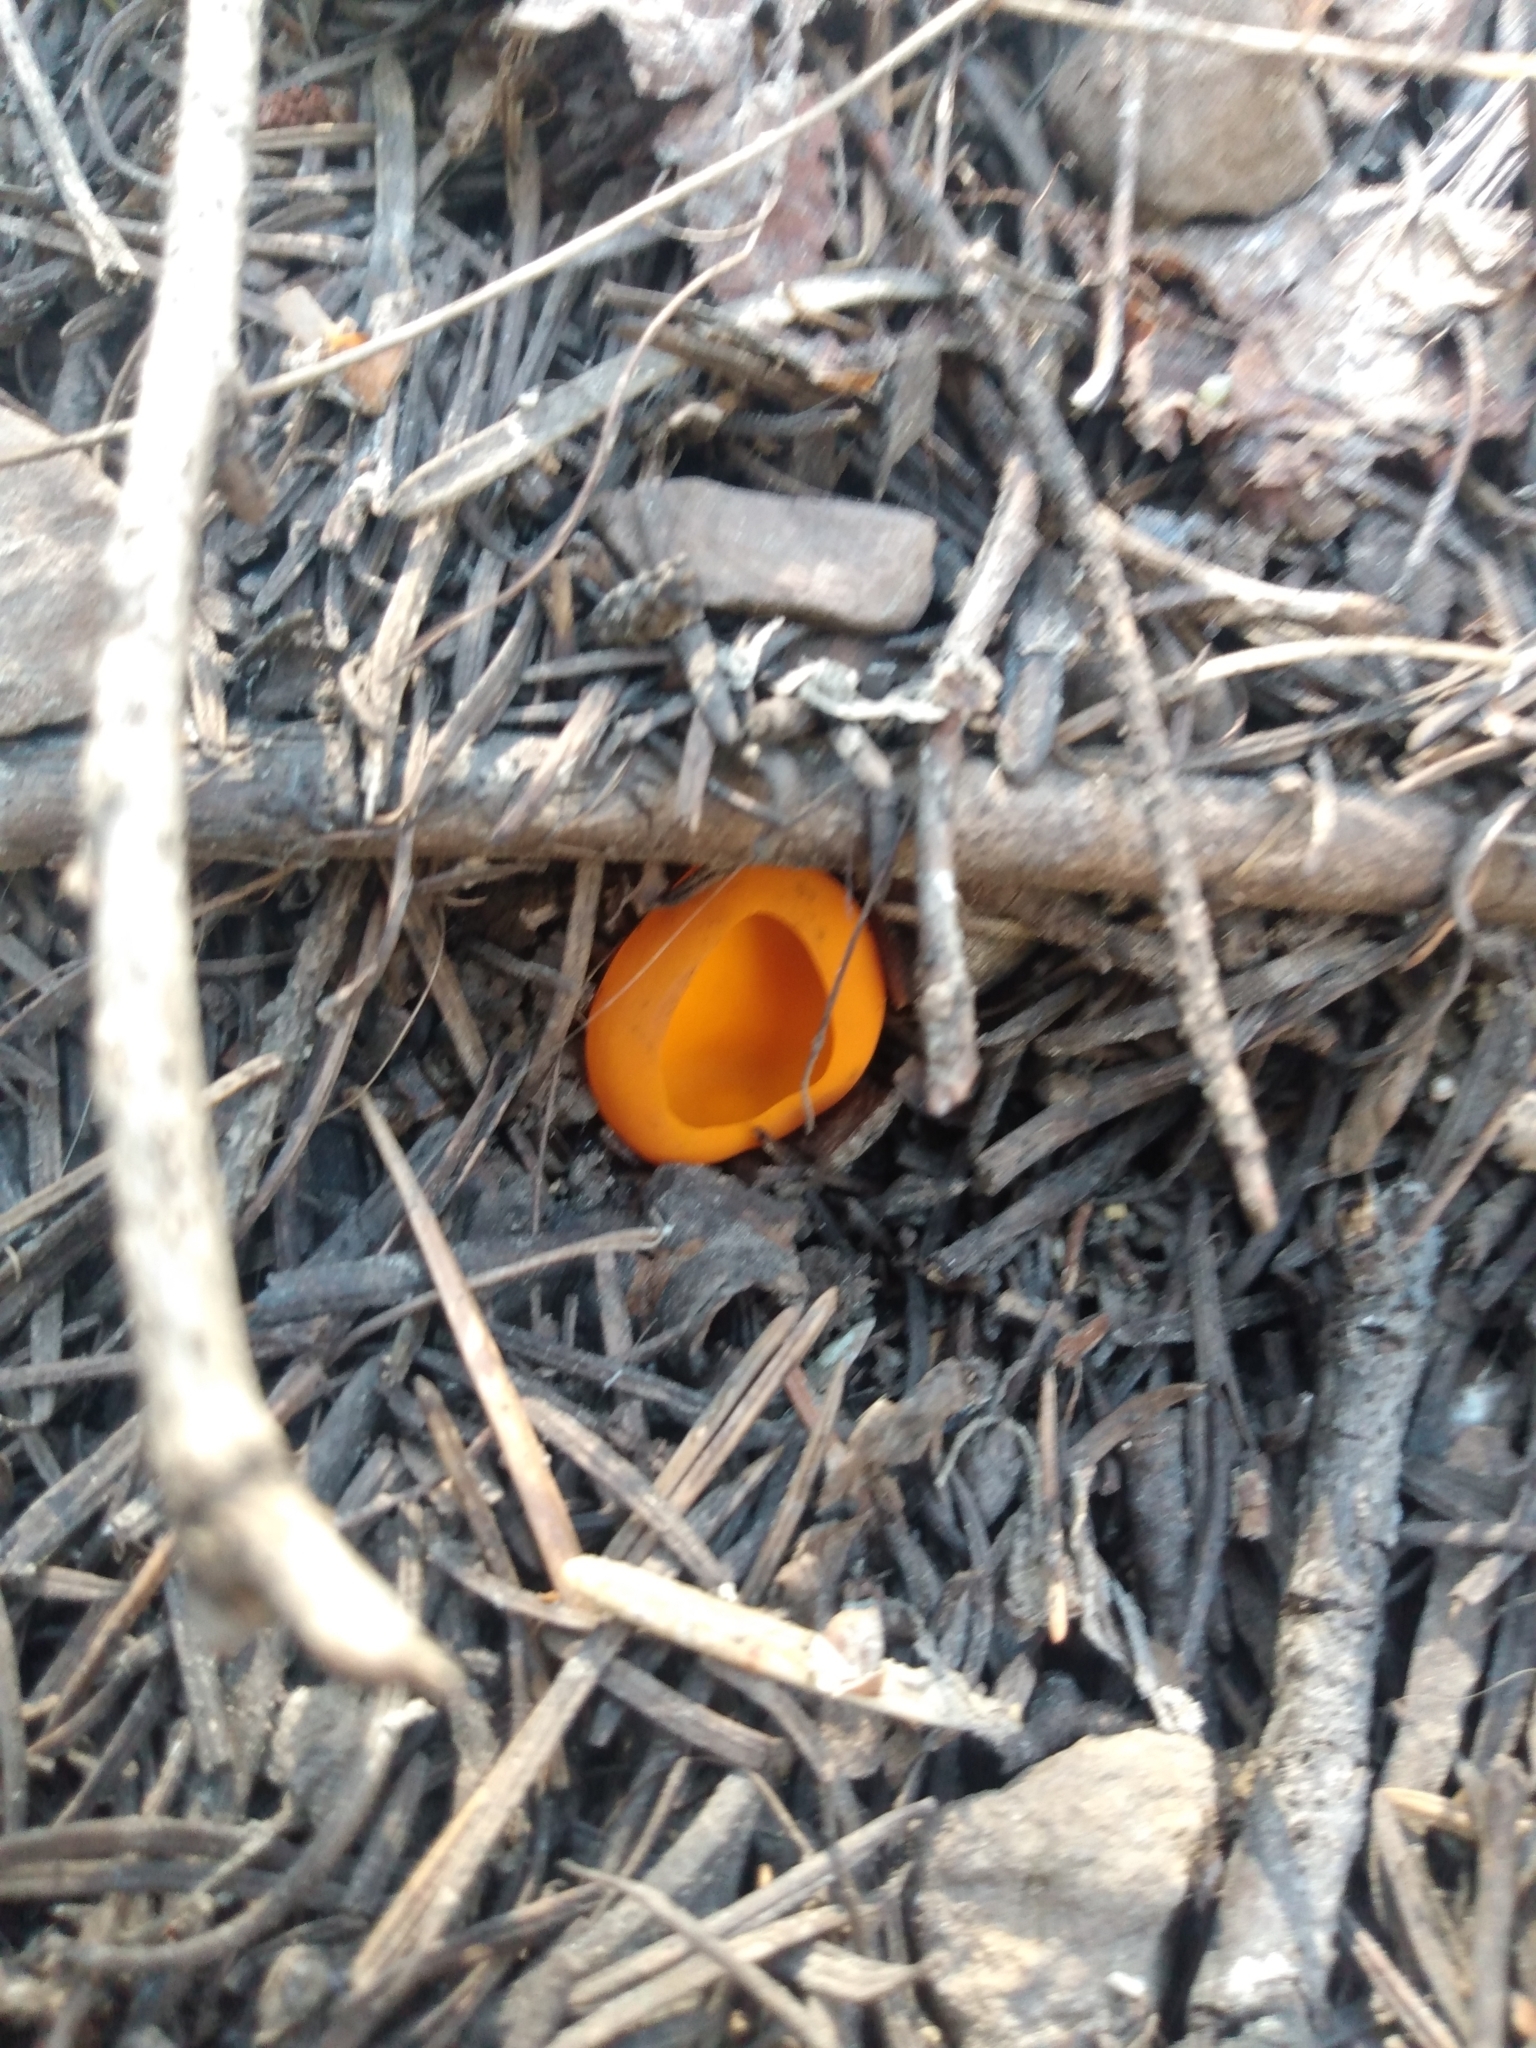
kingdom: Fungi
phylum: Ascomycota
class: Pezizomycetes
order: Pezizales
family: Caloscyphaceae
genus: Caloscypha
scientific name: Caloscypha fulgens
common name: Golden cup
